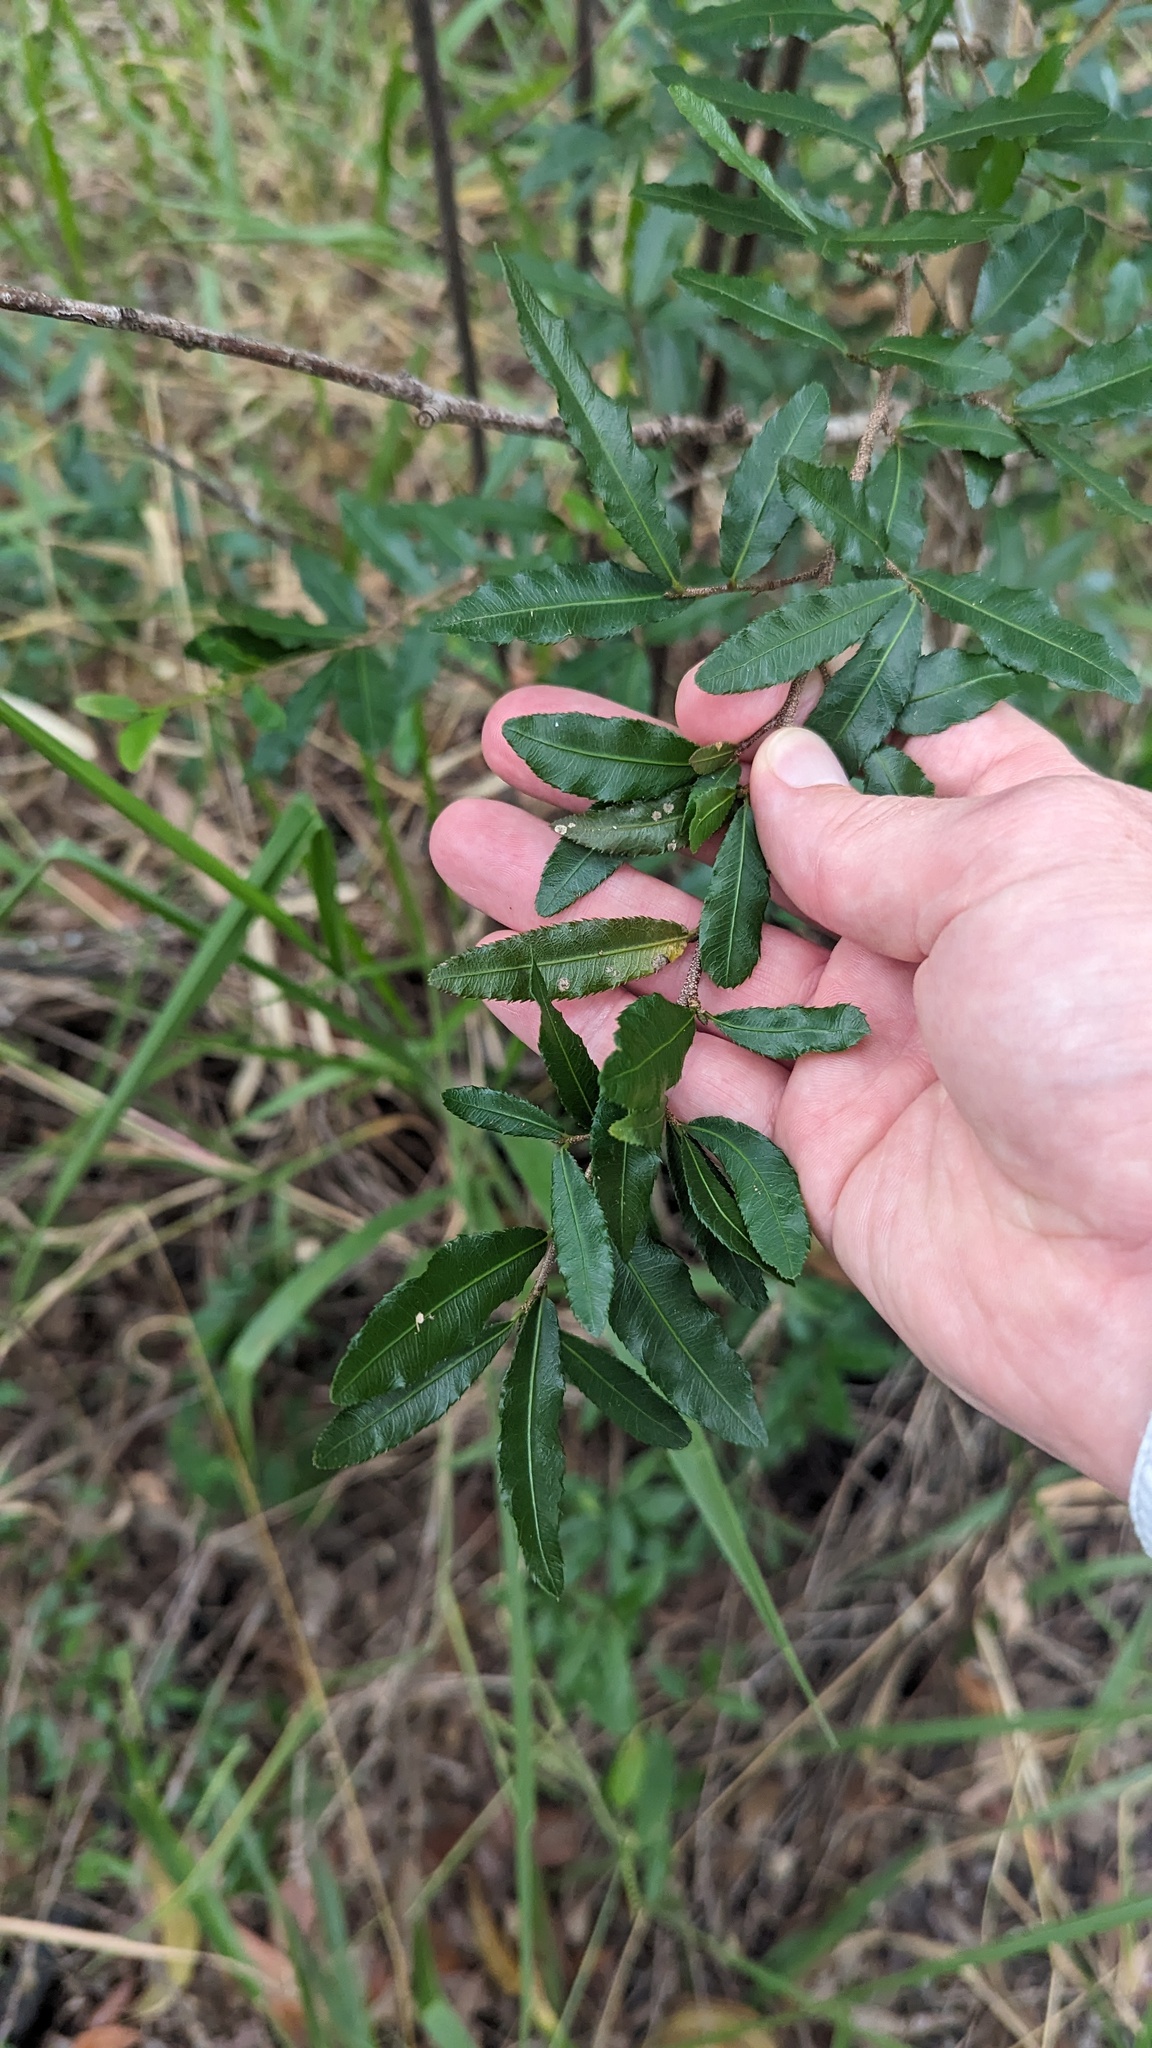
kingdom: Plantae
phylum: Tracheophyta
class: Magnoliopsida
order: Malpighiales
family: Ochnaceae
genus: Ochna
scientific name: Ochna serrulata
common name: Mickey mouse plant
